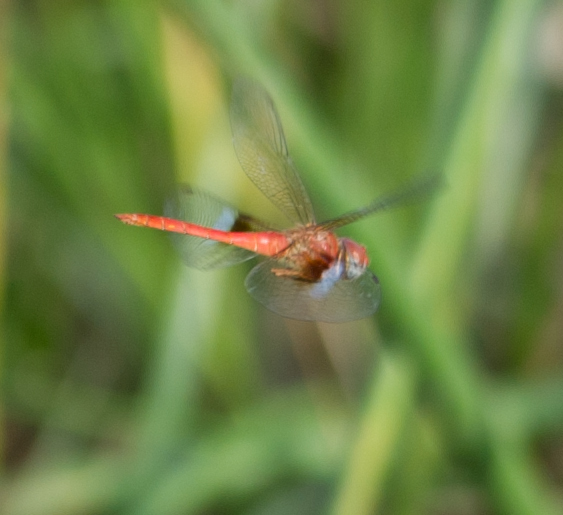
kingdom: Animalia
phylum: Arthropoda
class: Insecta
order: Odonata
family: Libellulidae
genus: Tholymis
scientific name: Tholymis tillarga
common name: Coral-tailed cloud wing
